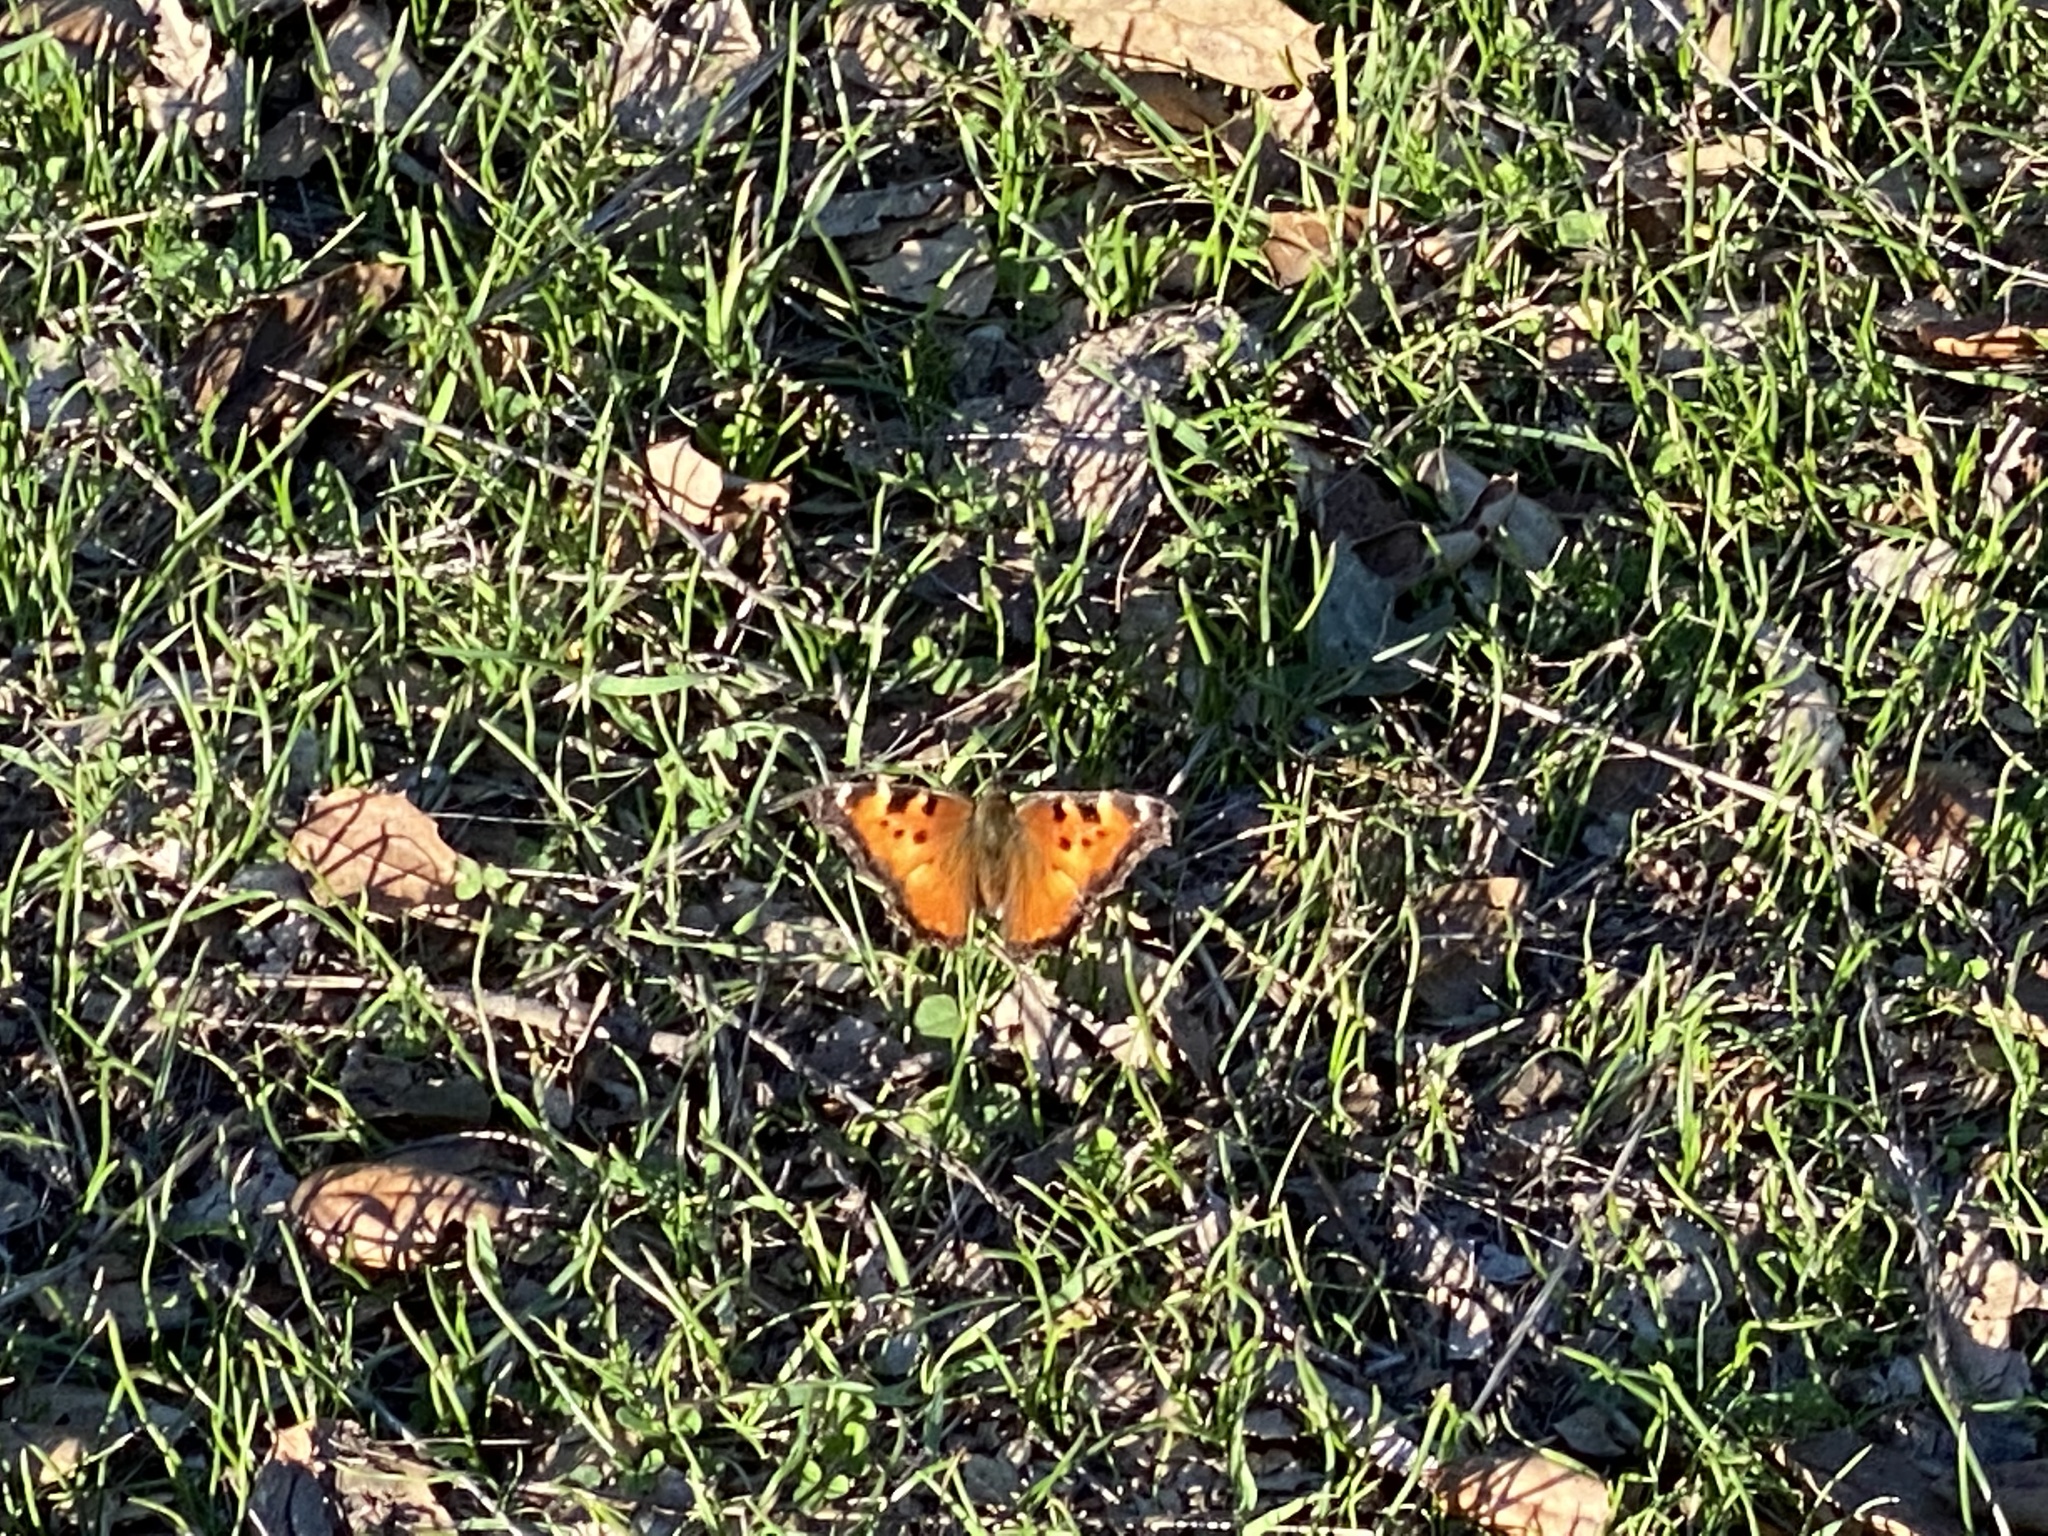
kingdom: Animalia
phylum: Arthropoda
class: Insecta
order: Lepidoptera
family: Nymphalidae
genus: Nymphalis
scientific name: Nymphalis californica
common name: California tortoiseshell
